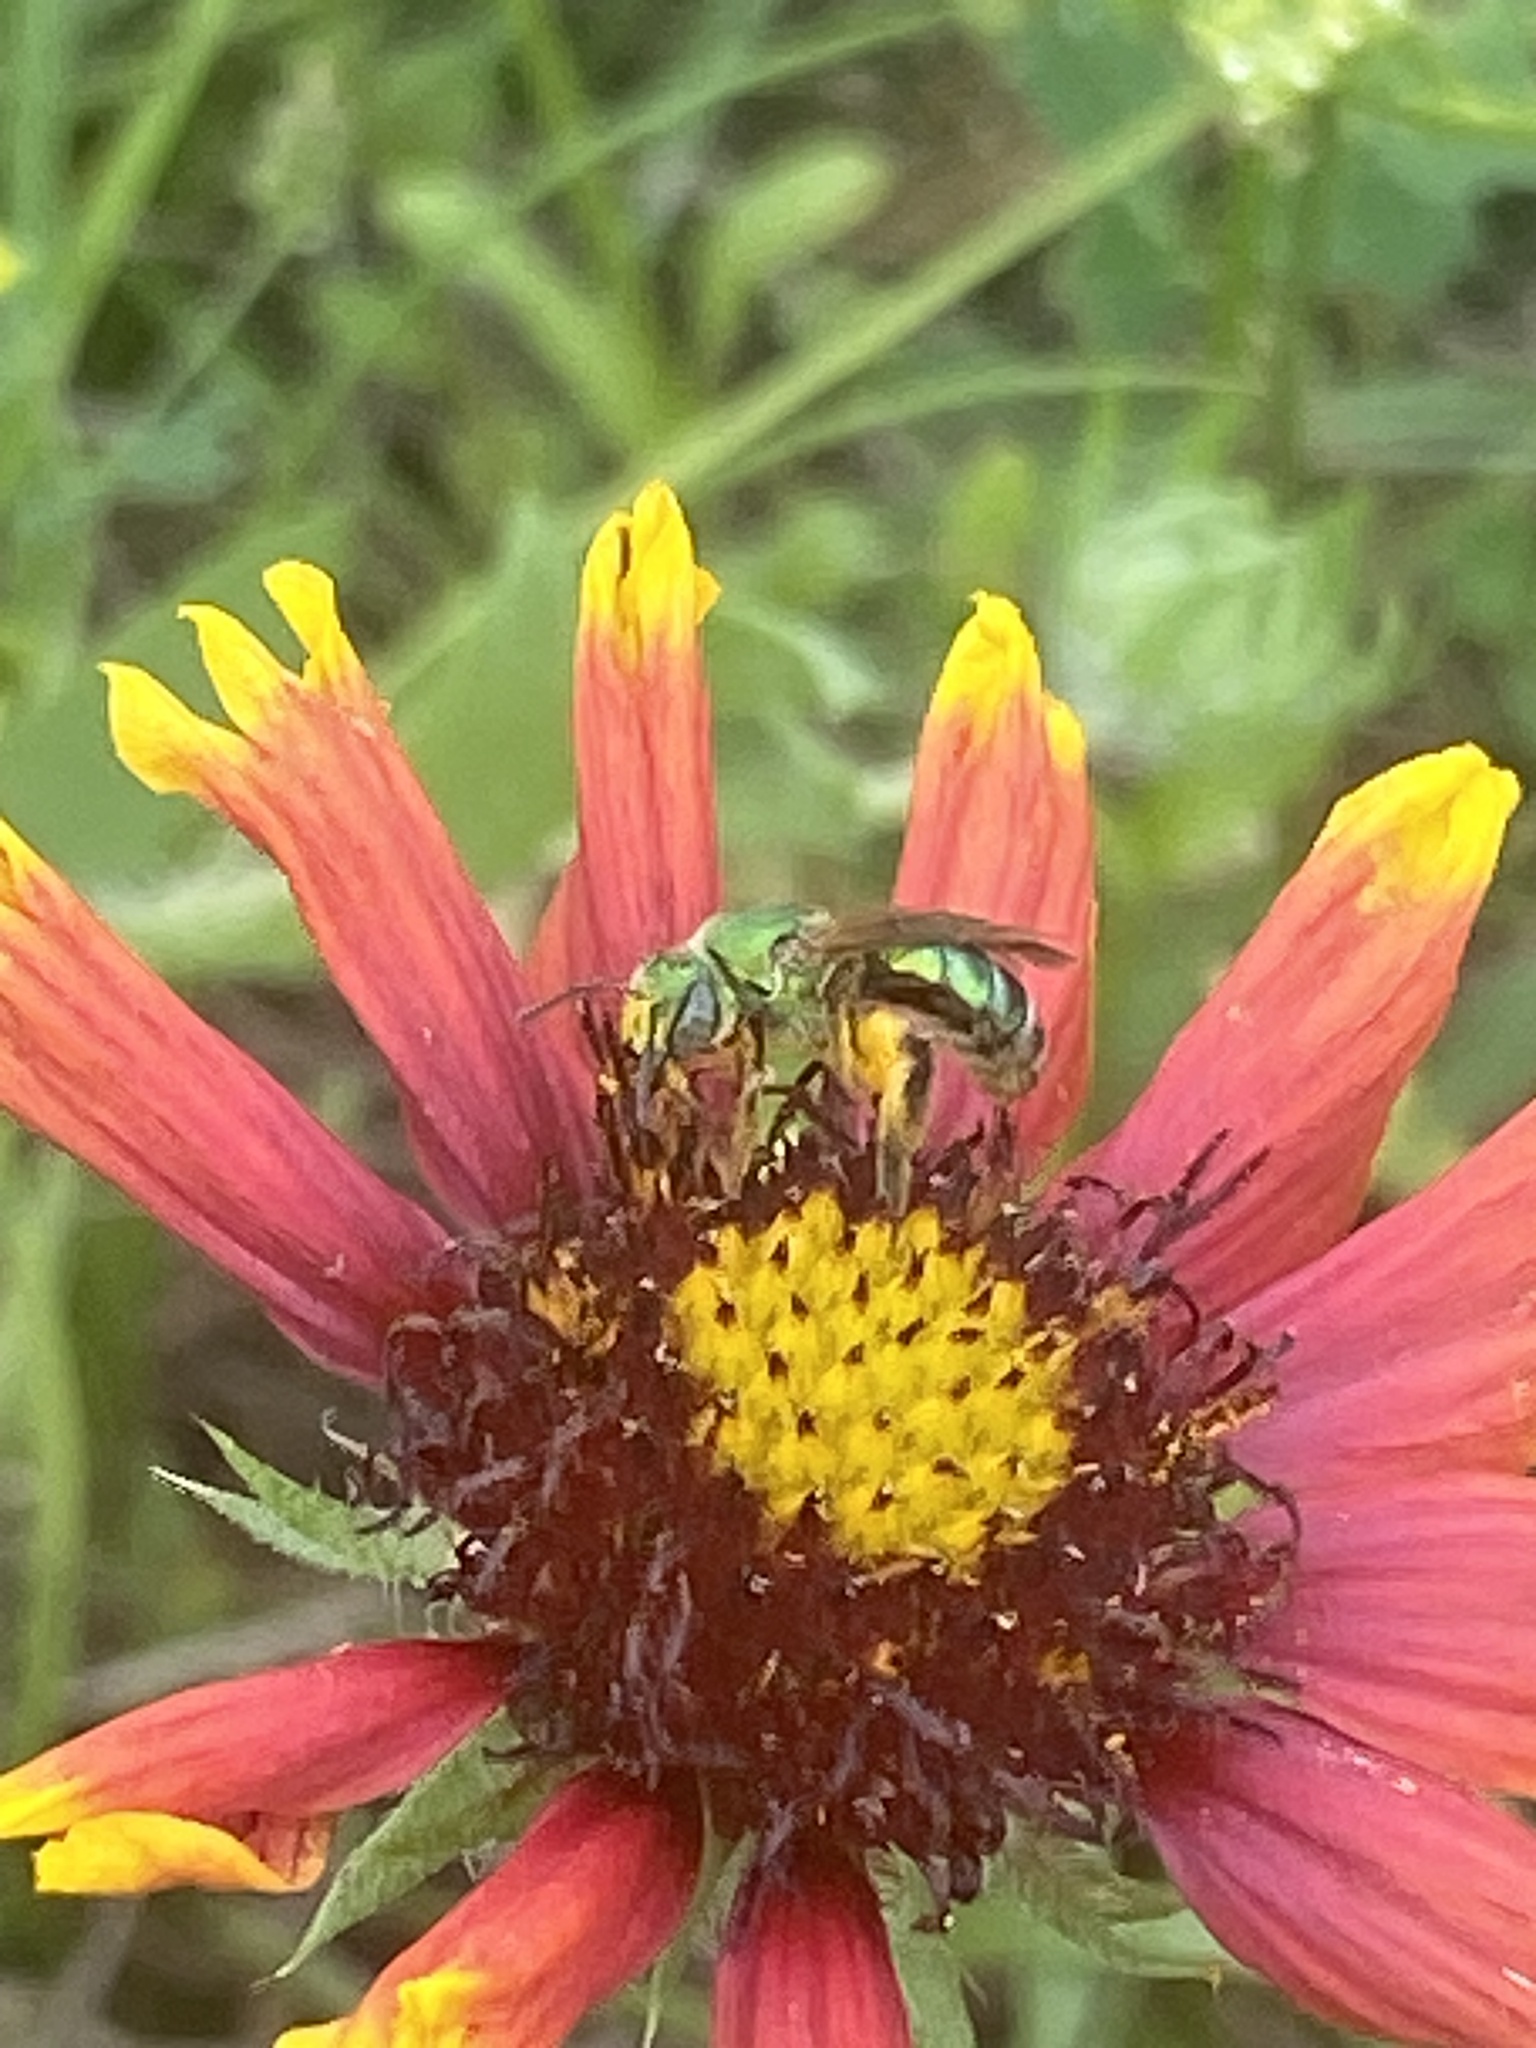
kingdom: Plantae
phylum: Tracheophyta
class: Magnoliopsida
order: Asterales
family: Asteraceae
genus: Gaillardia
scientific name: Gaillardia pulchella
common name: Firewheel
